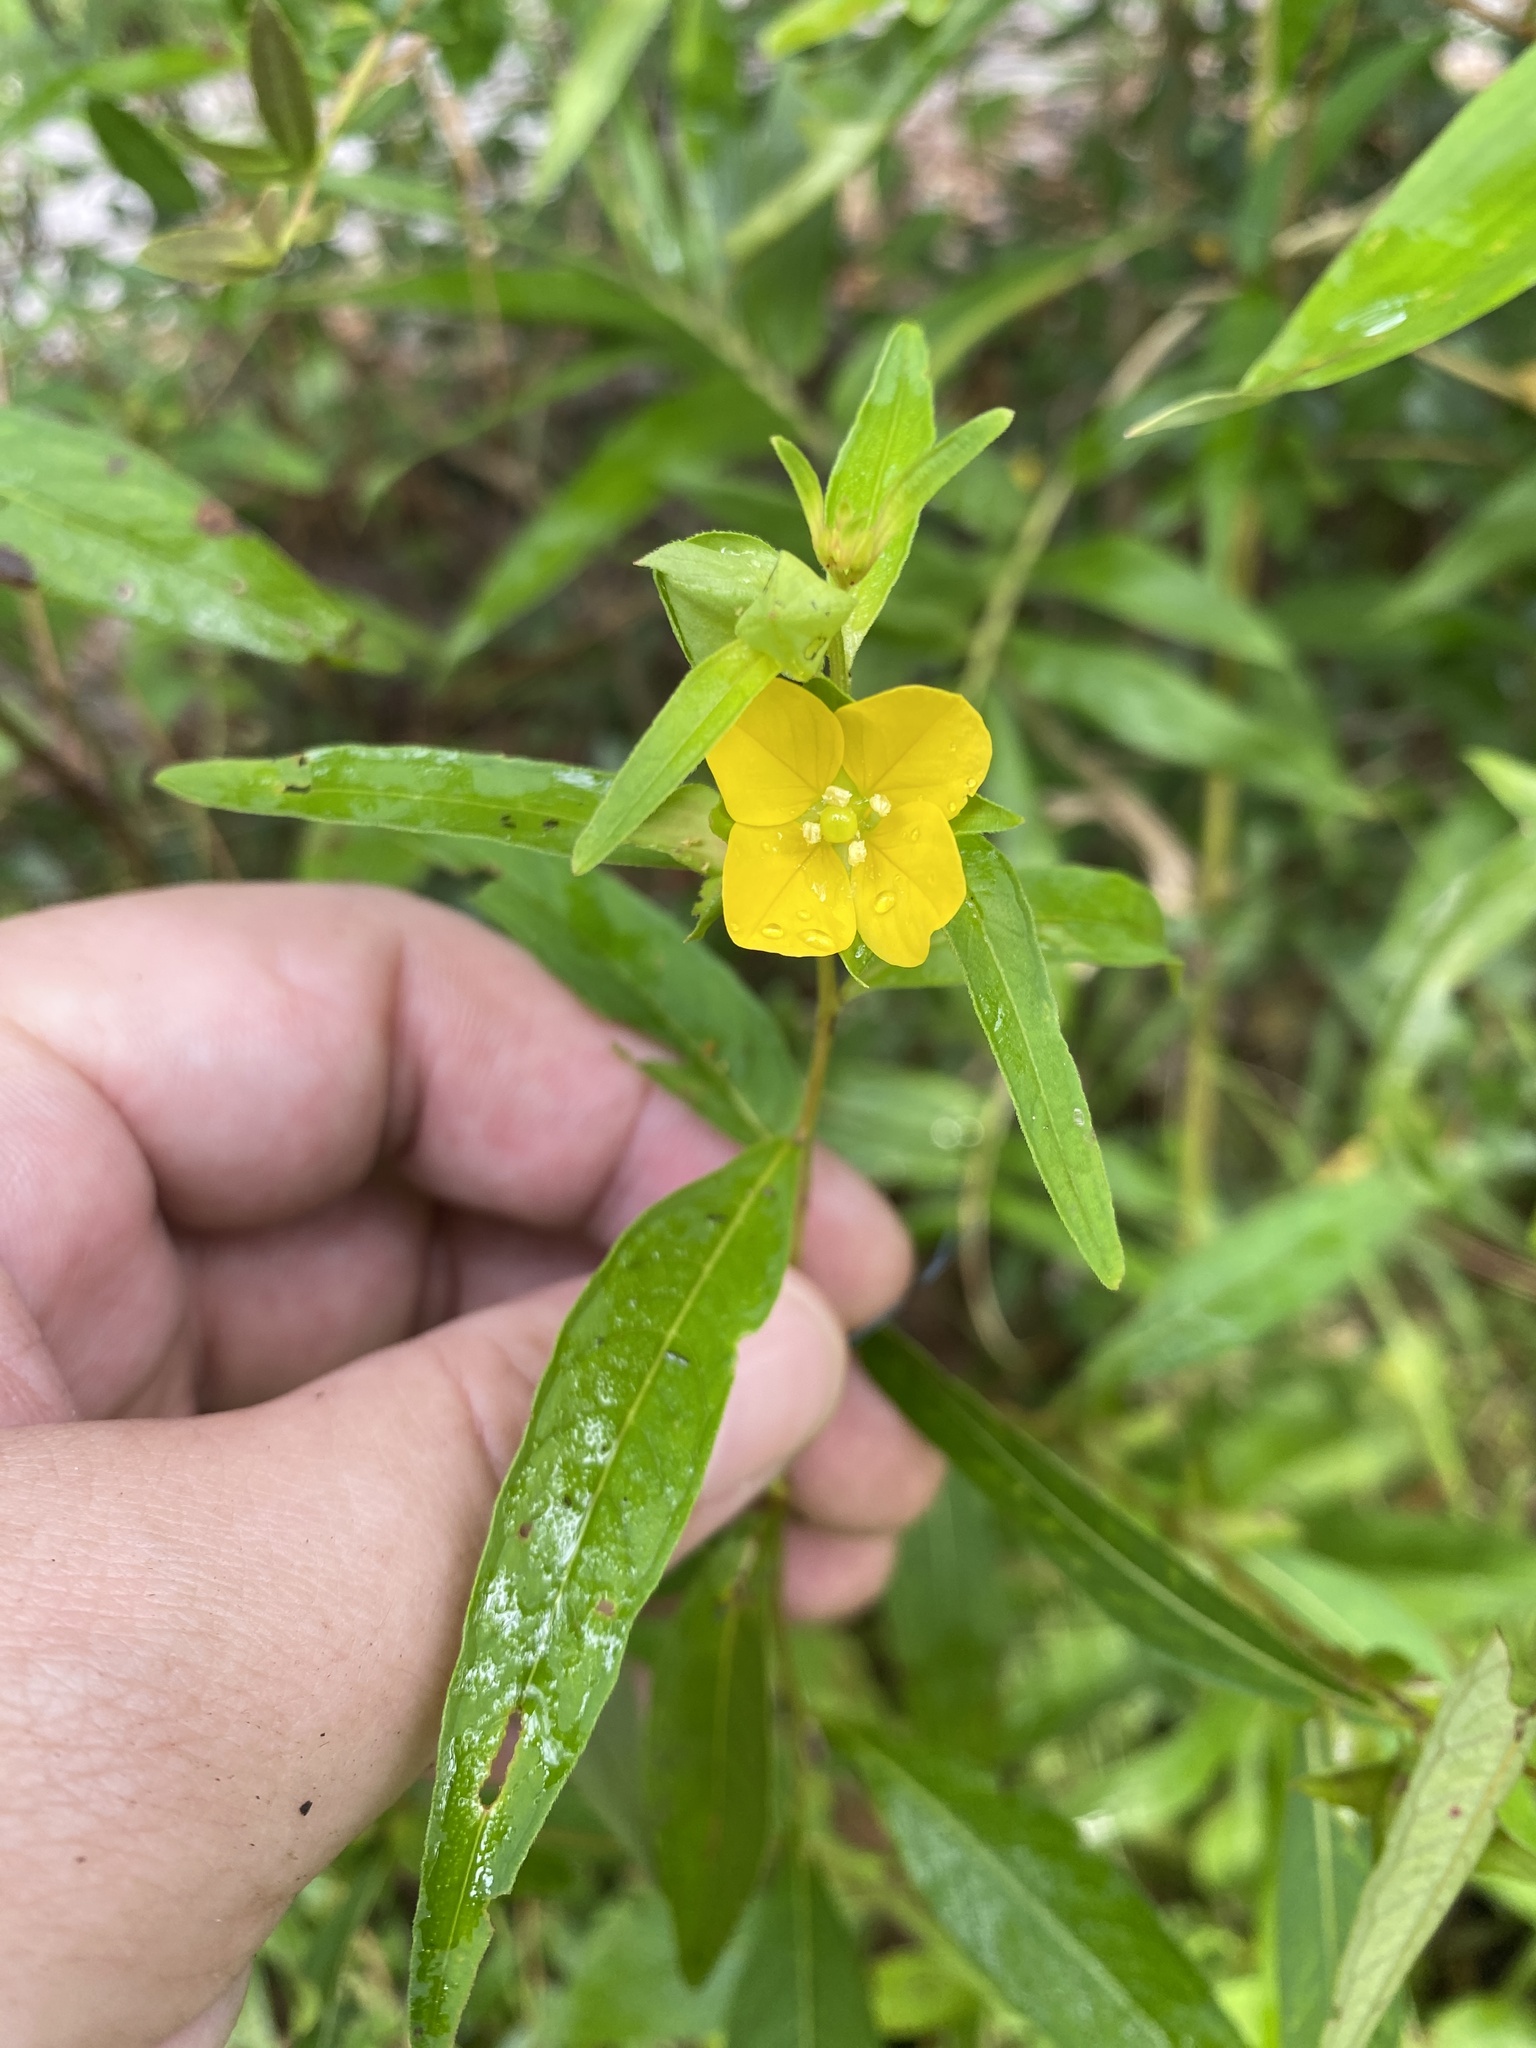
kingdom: Plantae
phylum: Tracheophyta
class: Magnoliopsida
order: Myrtales
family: Onagraceae
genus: Ludwigia
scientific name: Ludwigia alternifolia
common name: Rattlebox
